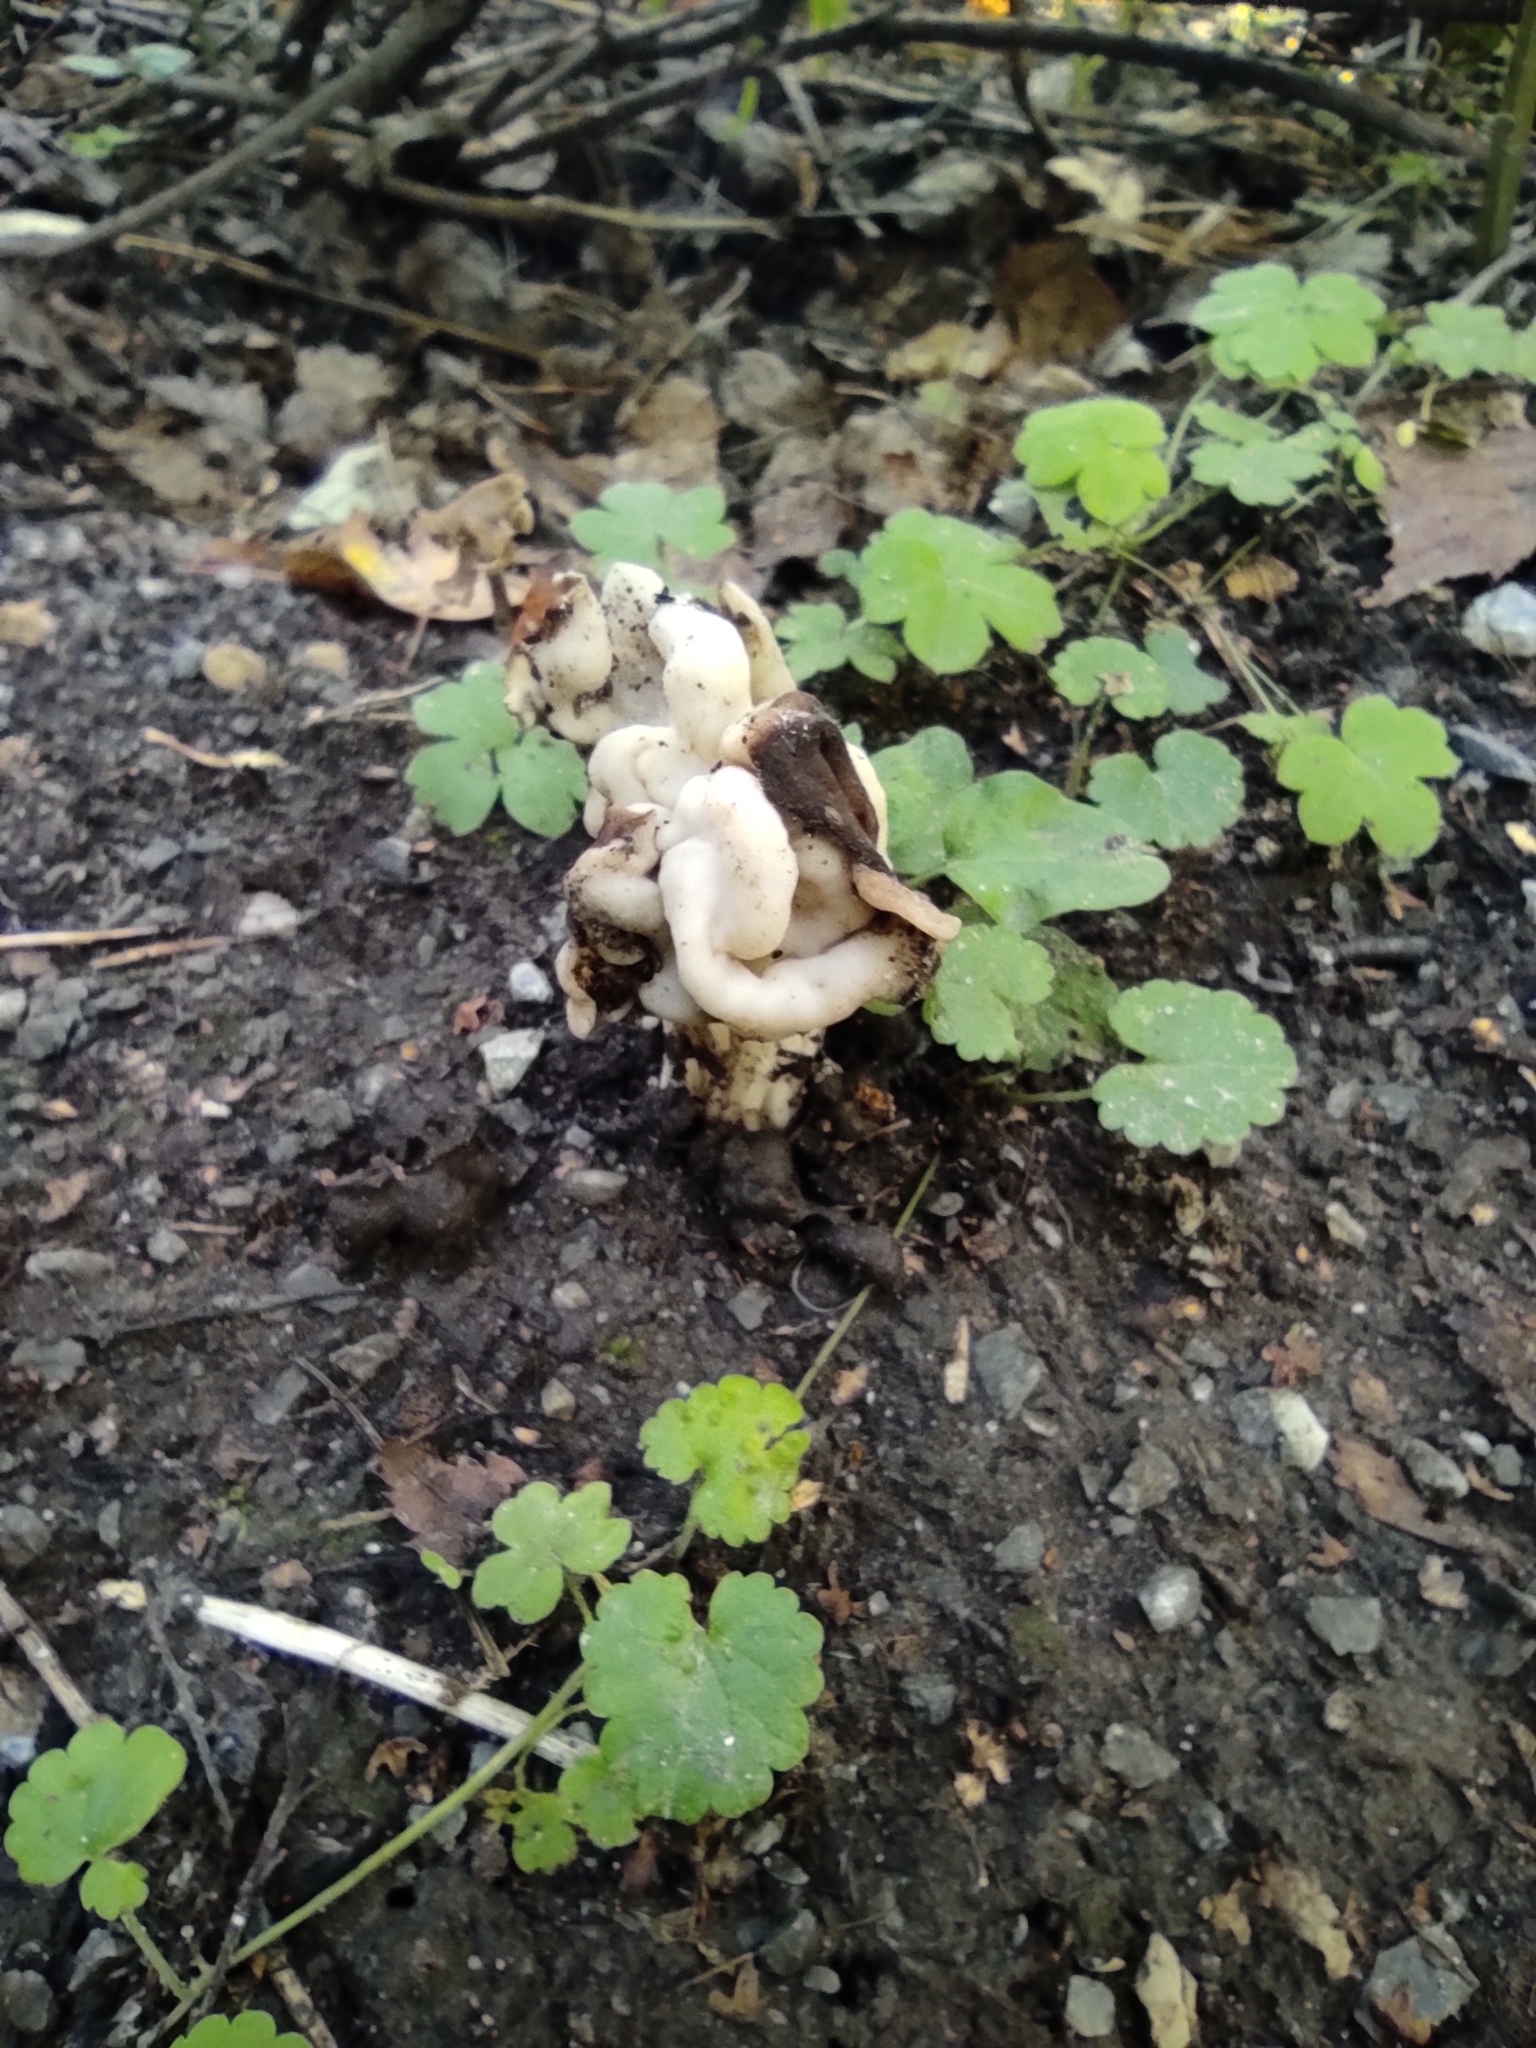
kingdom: Fungi
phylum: Ascomycota
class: Pezizomycetes
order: Pezizales
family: Helvellaceae
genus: Helvella
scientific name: Helvella crispa
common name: White saddle
